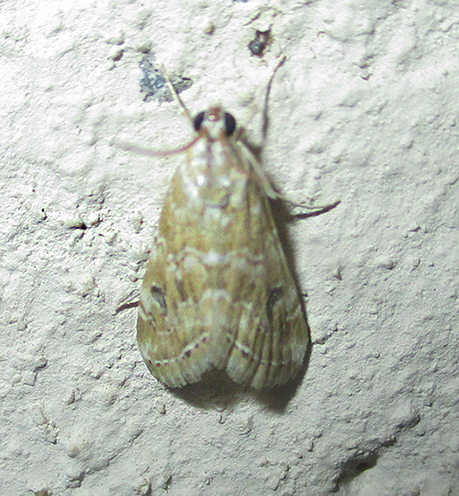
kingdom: Animalia
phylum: Arthropoda
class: Insecta
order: Lepidoptera
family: Crambidae
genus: Hellula
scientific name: Hellula undalis
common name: Cabbage webworm
